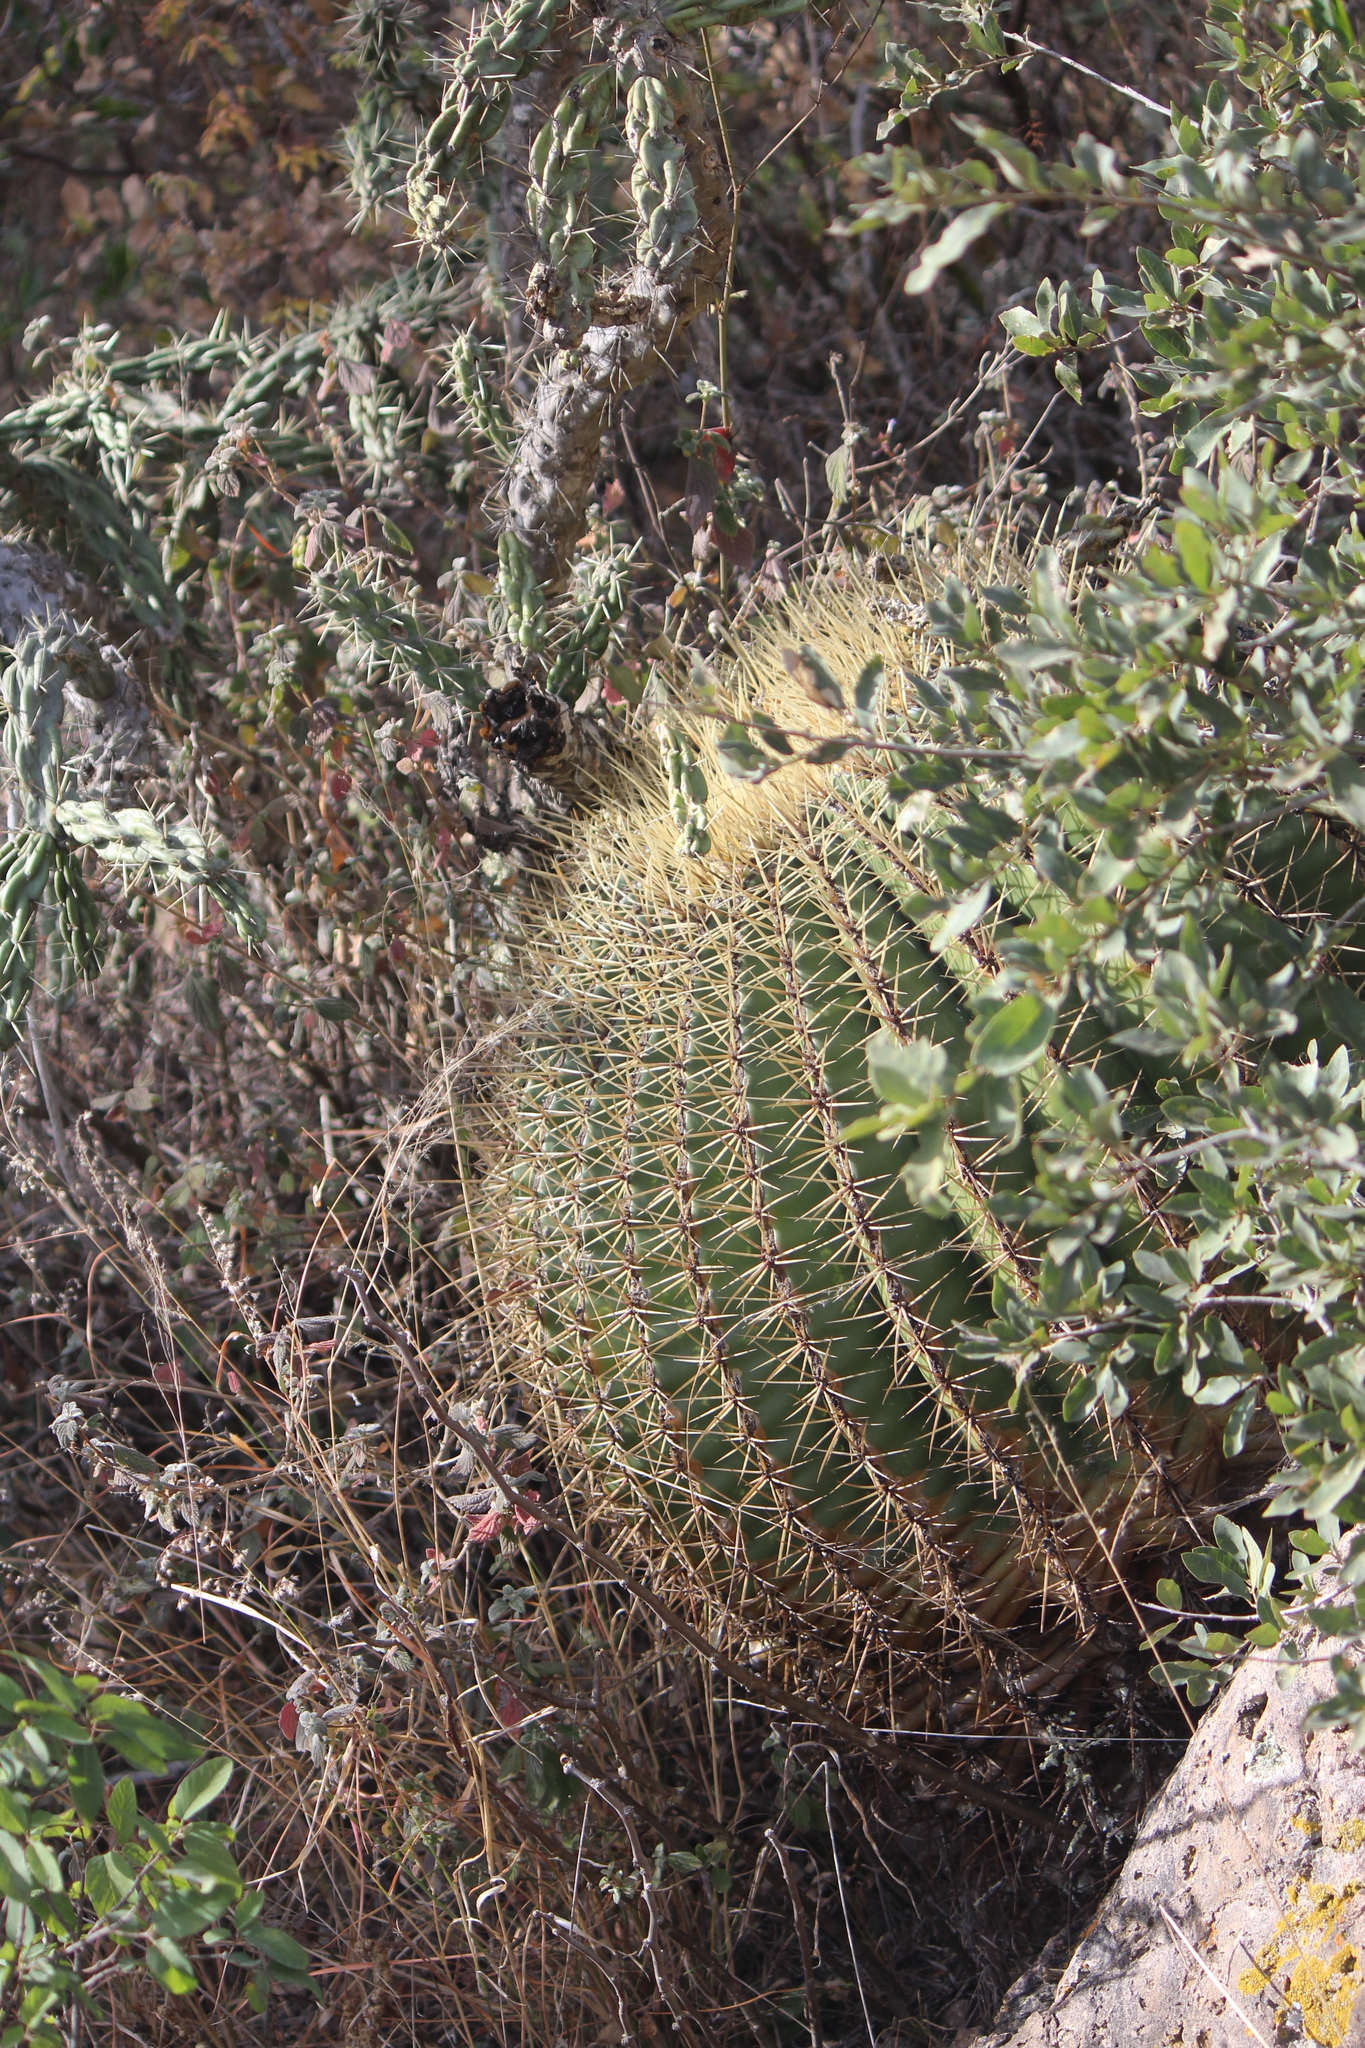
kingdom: Plantae
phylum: Tracheophyta
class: Magnoliopsida
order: Caryophyllales
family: Cactaceae
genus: Bisnaga
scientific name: Bisnaga histrix
